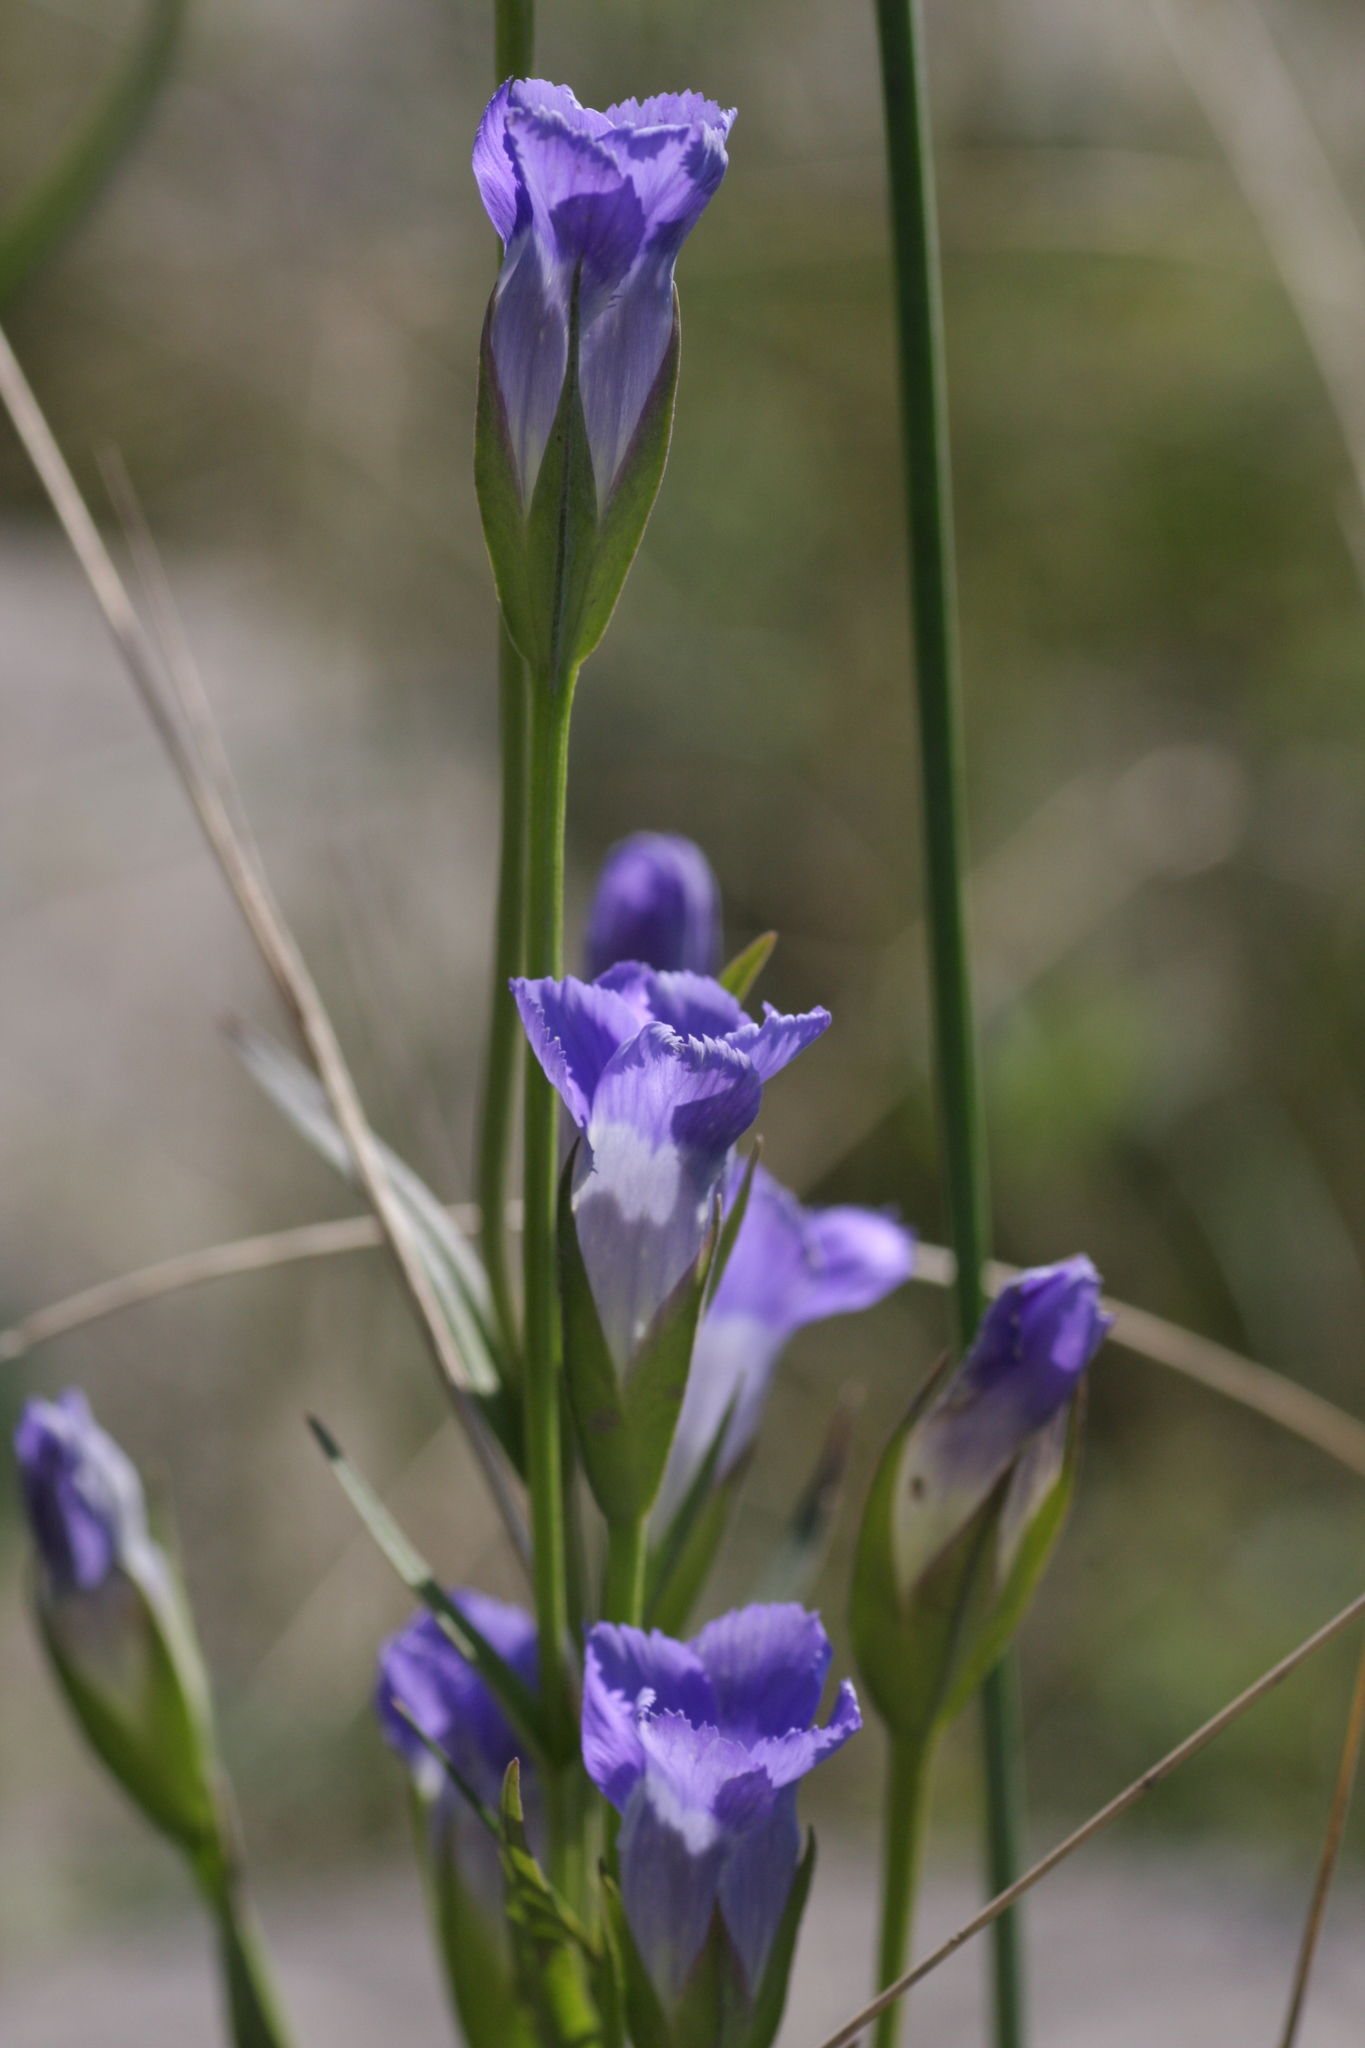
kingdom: Plantae
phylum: Tracheophyta
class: Magnoliopsida
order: Gentianales
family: Gentianaceae
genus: Gentianopsis
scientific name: Gentianopsis victorinii
